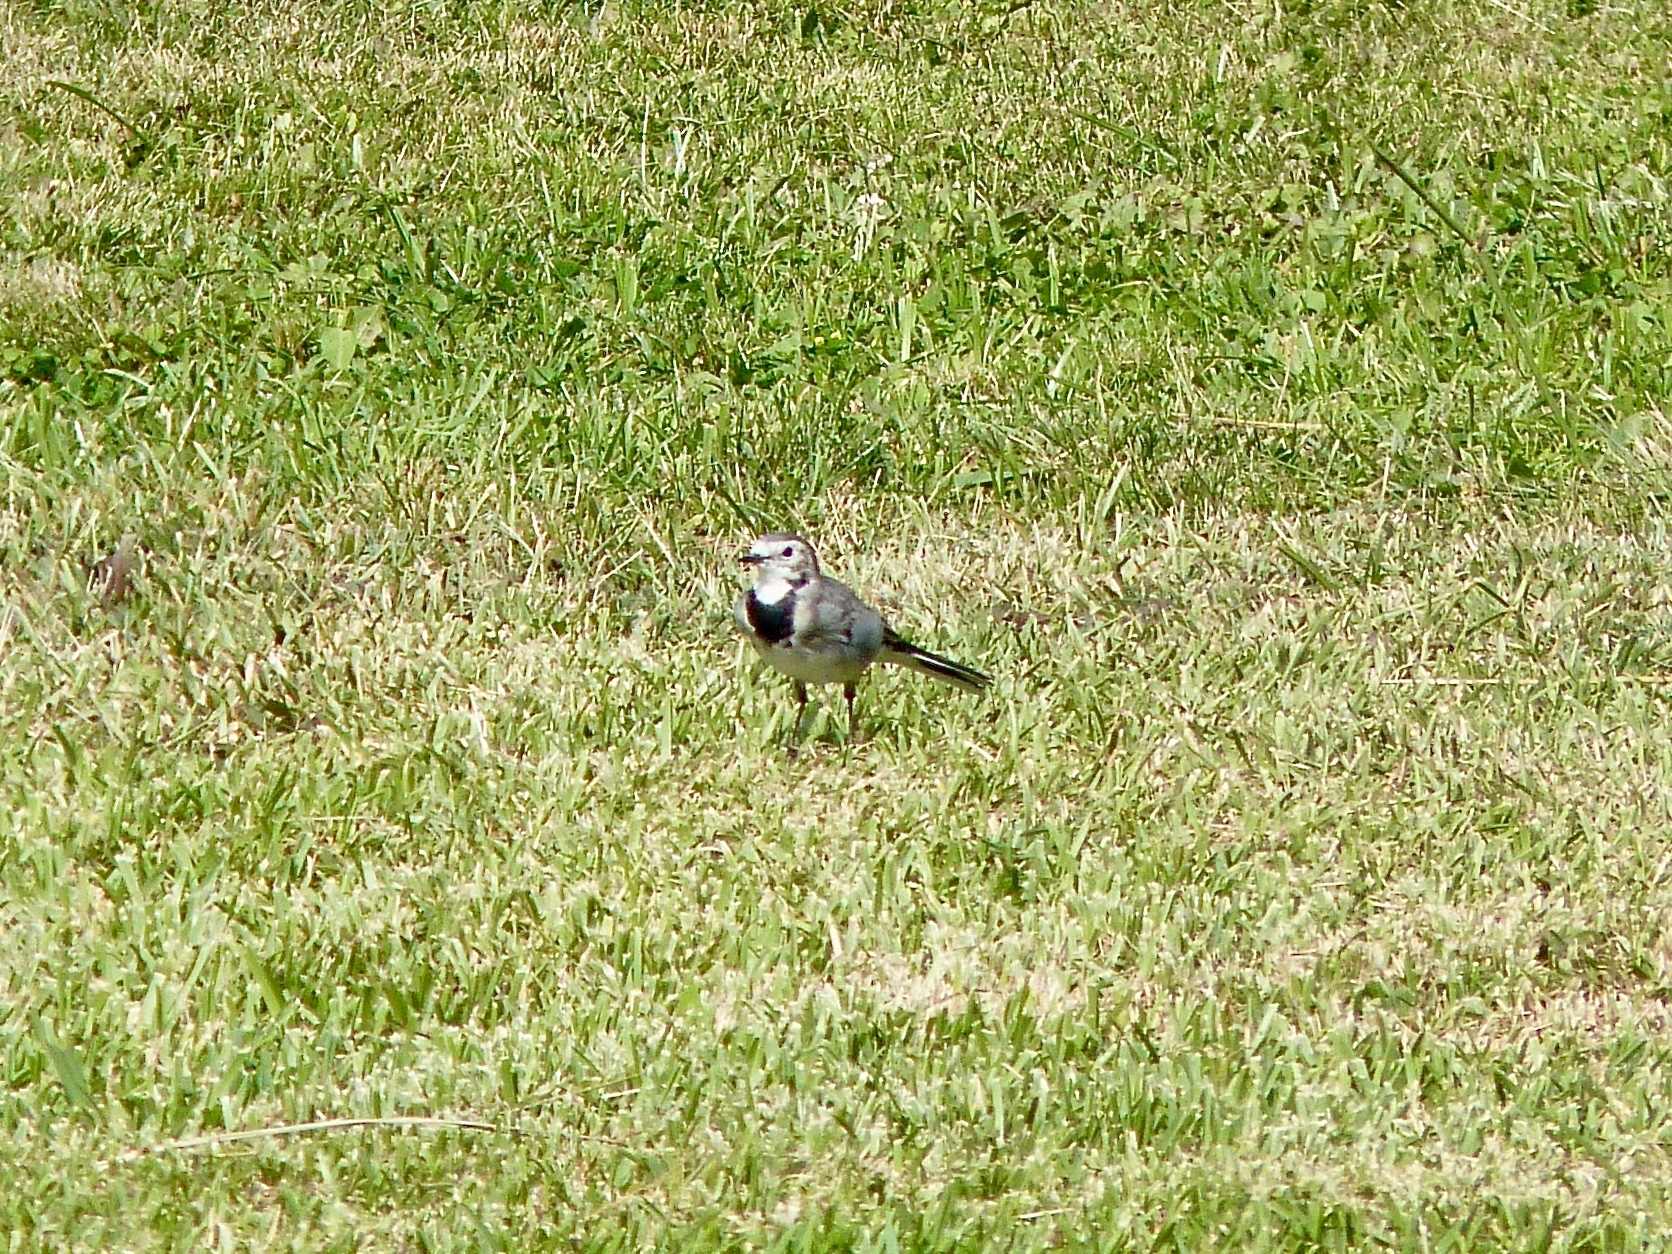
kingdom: Animalia
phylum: Chordata
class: Aves
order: Passeriformes
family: Motacillidae
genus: Motacilla
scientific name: Motacilla alba
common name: White wagtail
